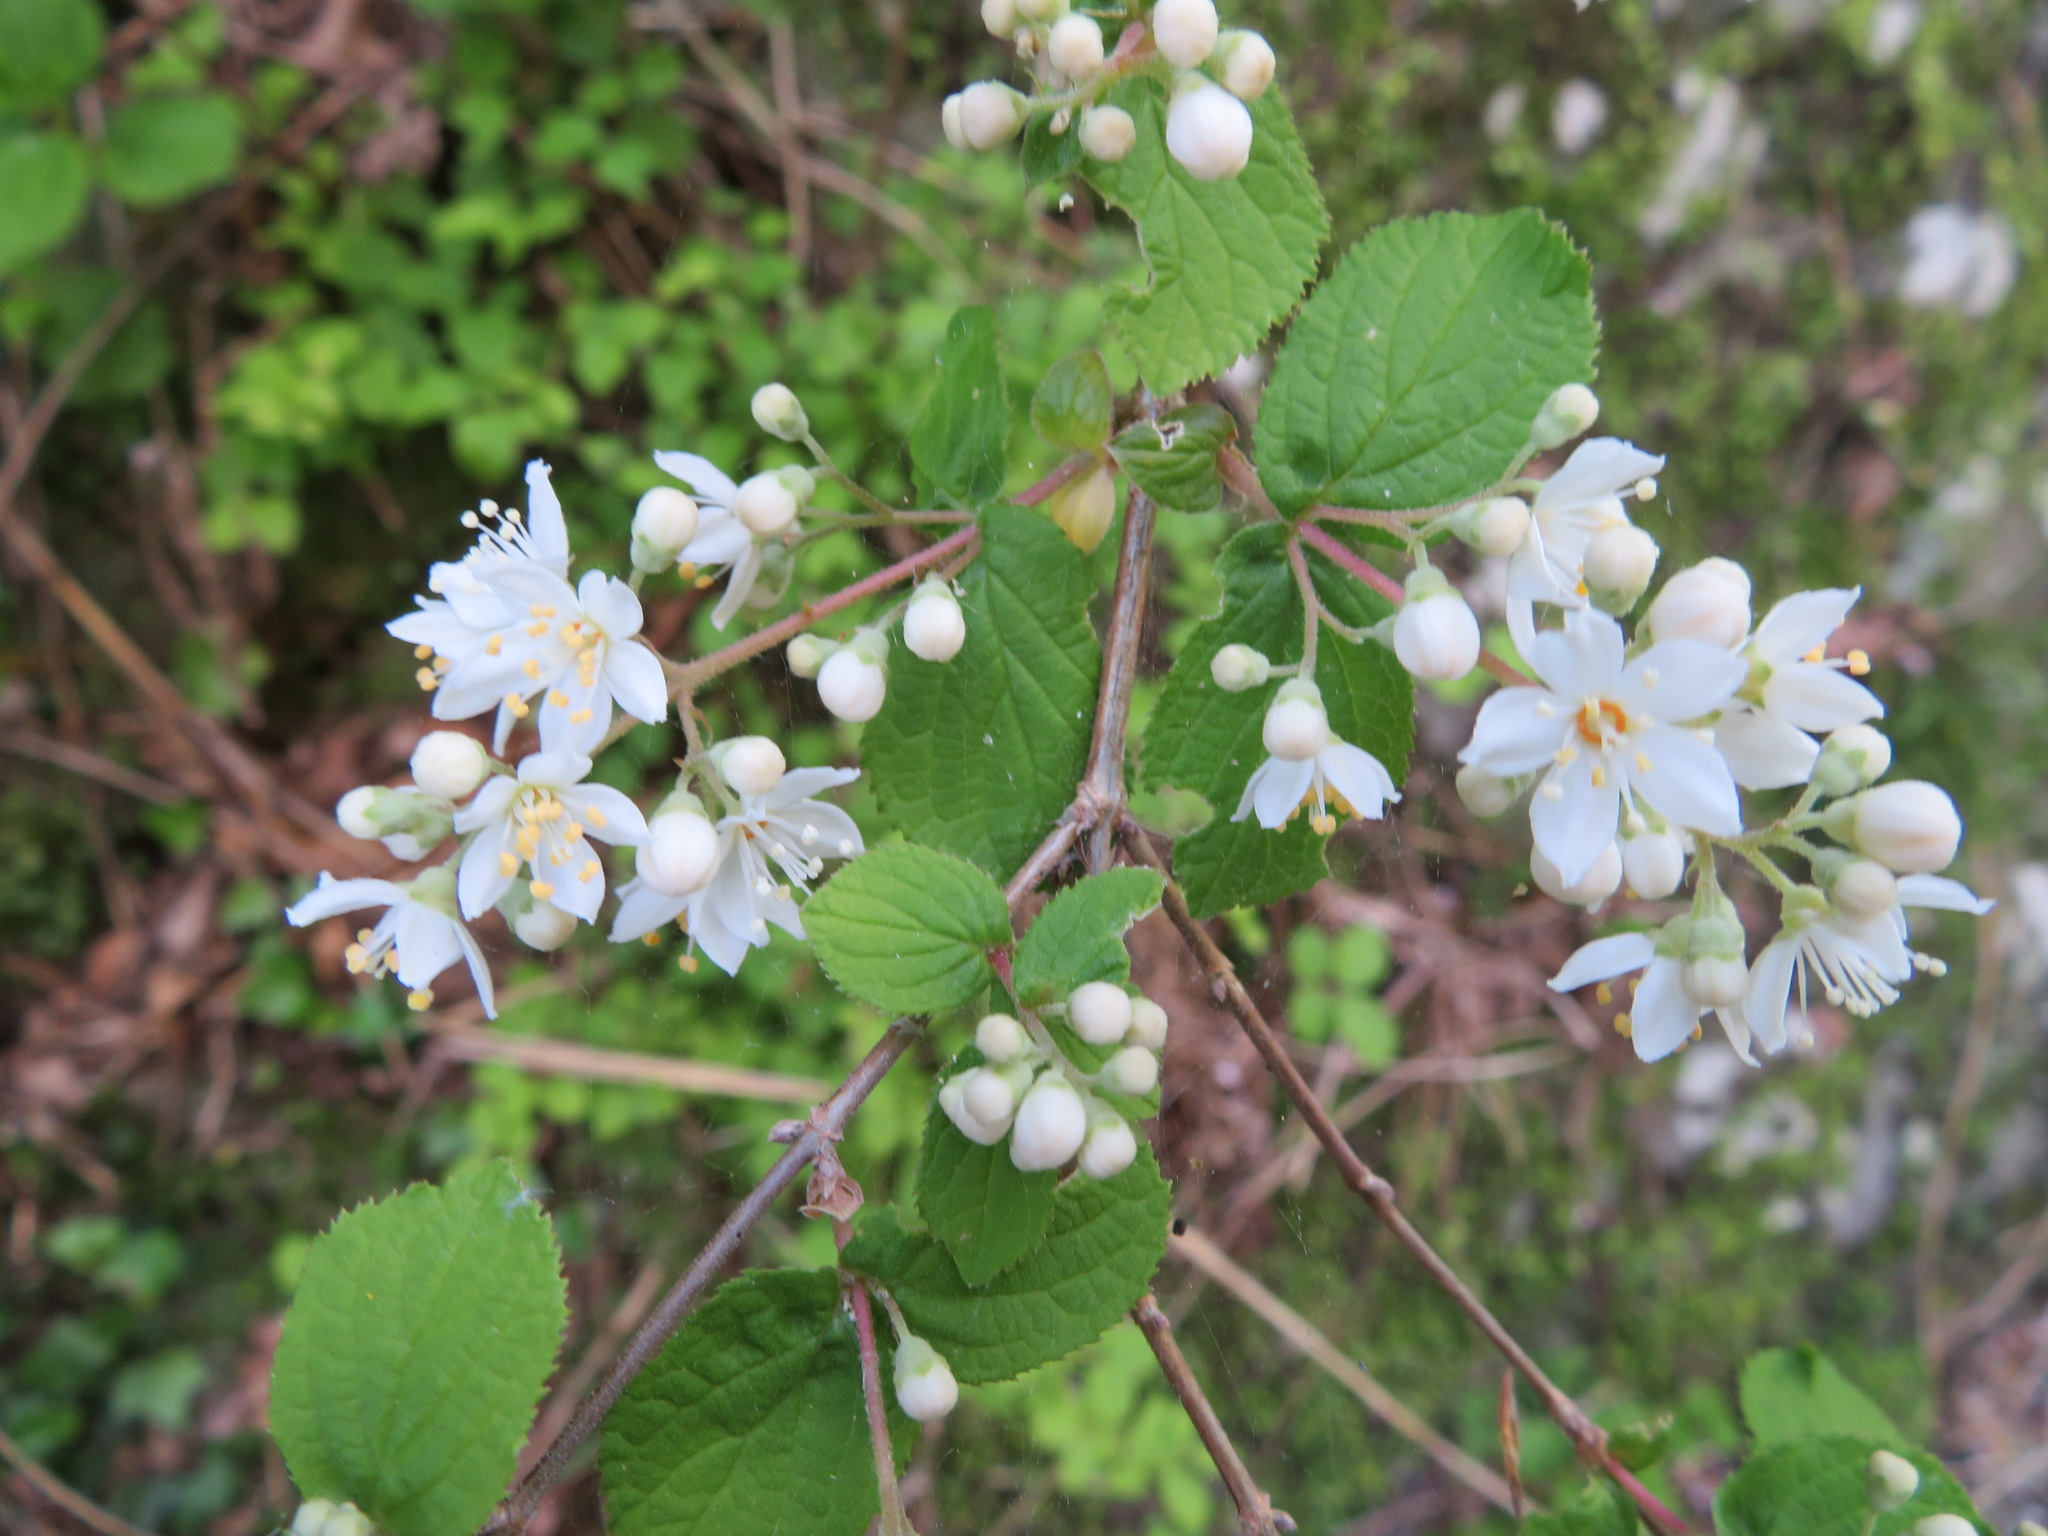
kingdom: Plantae
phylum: Tracheophyta
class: Magnoliopsida
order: Cornales
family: Hydrangeaceae
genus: Deutzia
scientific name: Deutzia scabra
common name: Deutzia
